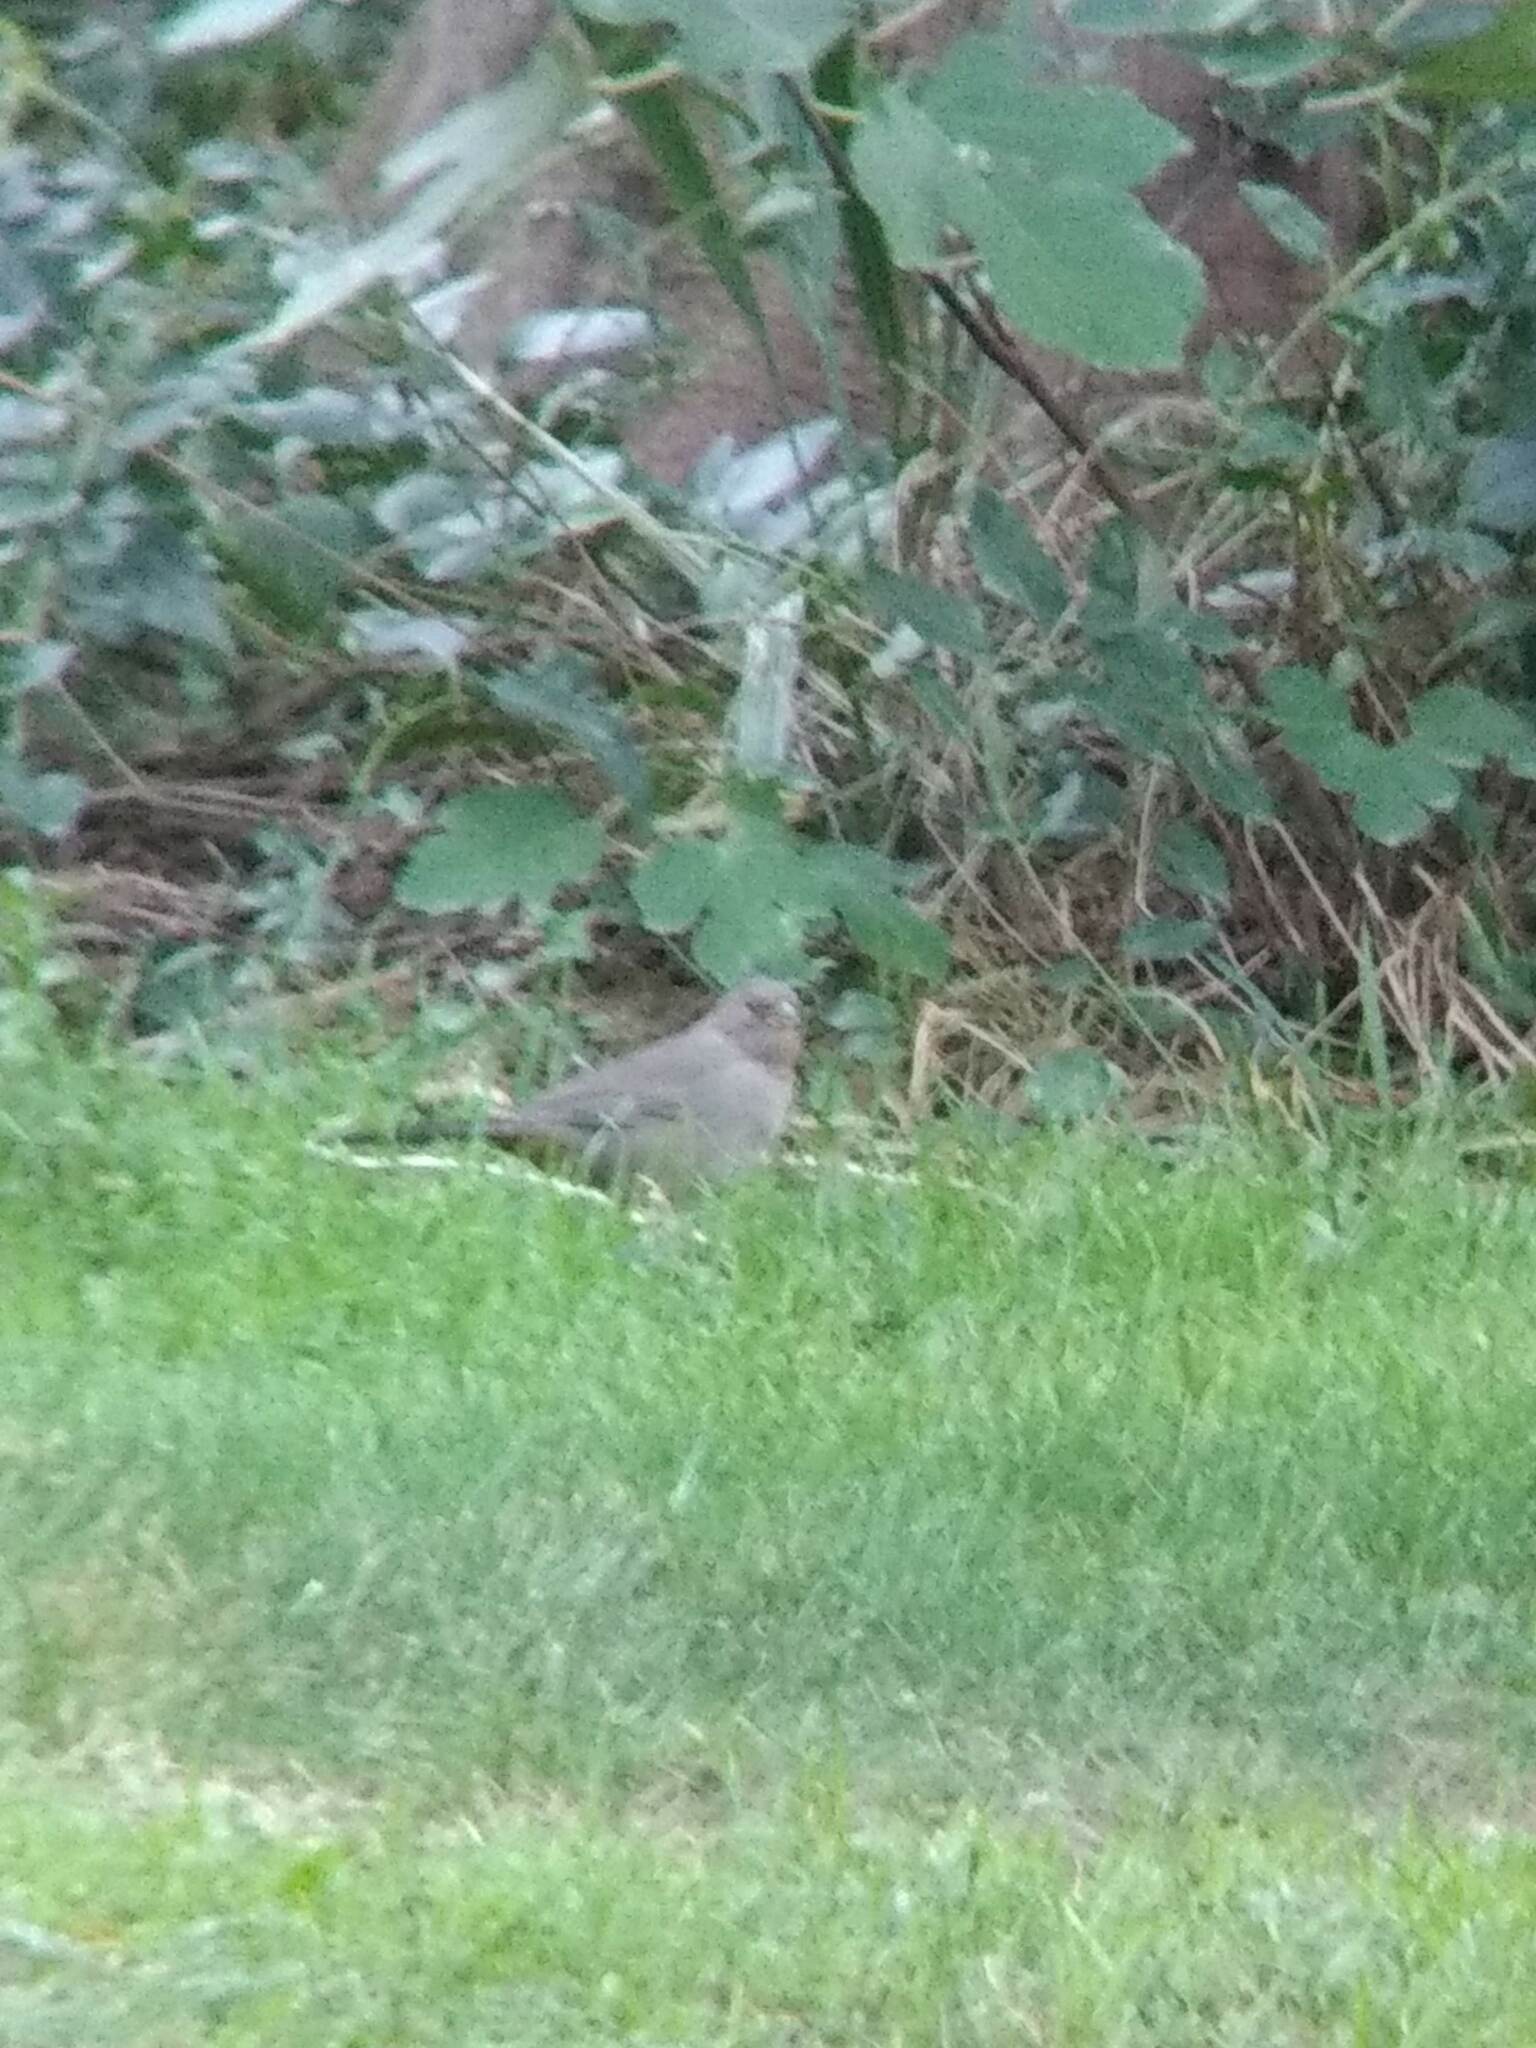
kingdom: Animalia
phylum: Chordata
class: Aves
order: Passeriformes
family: Passerellidae
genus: Melozone
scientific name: Melozone crissalis
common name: California towhee
